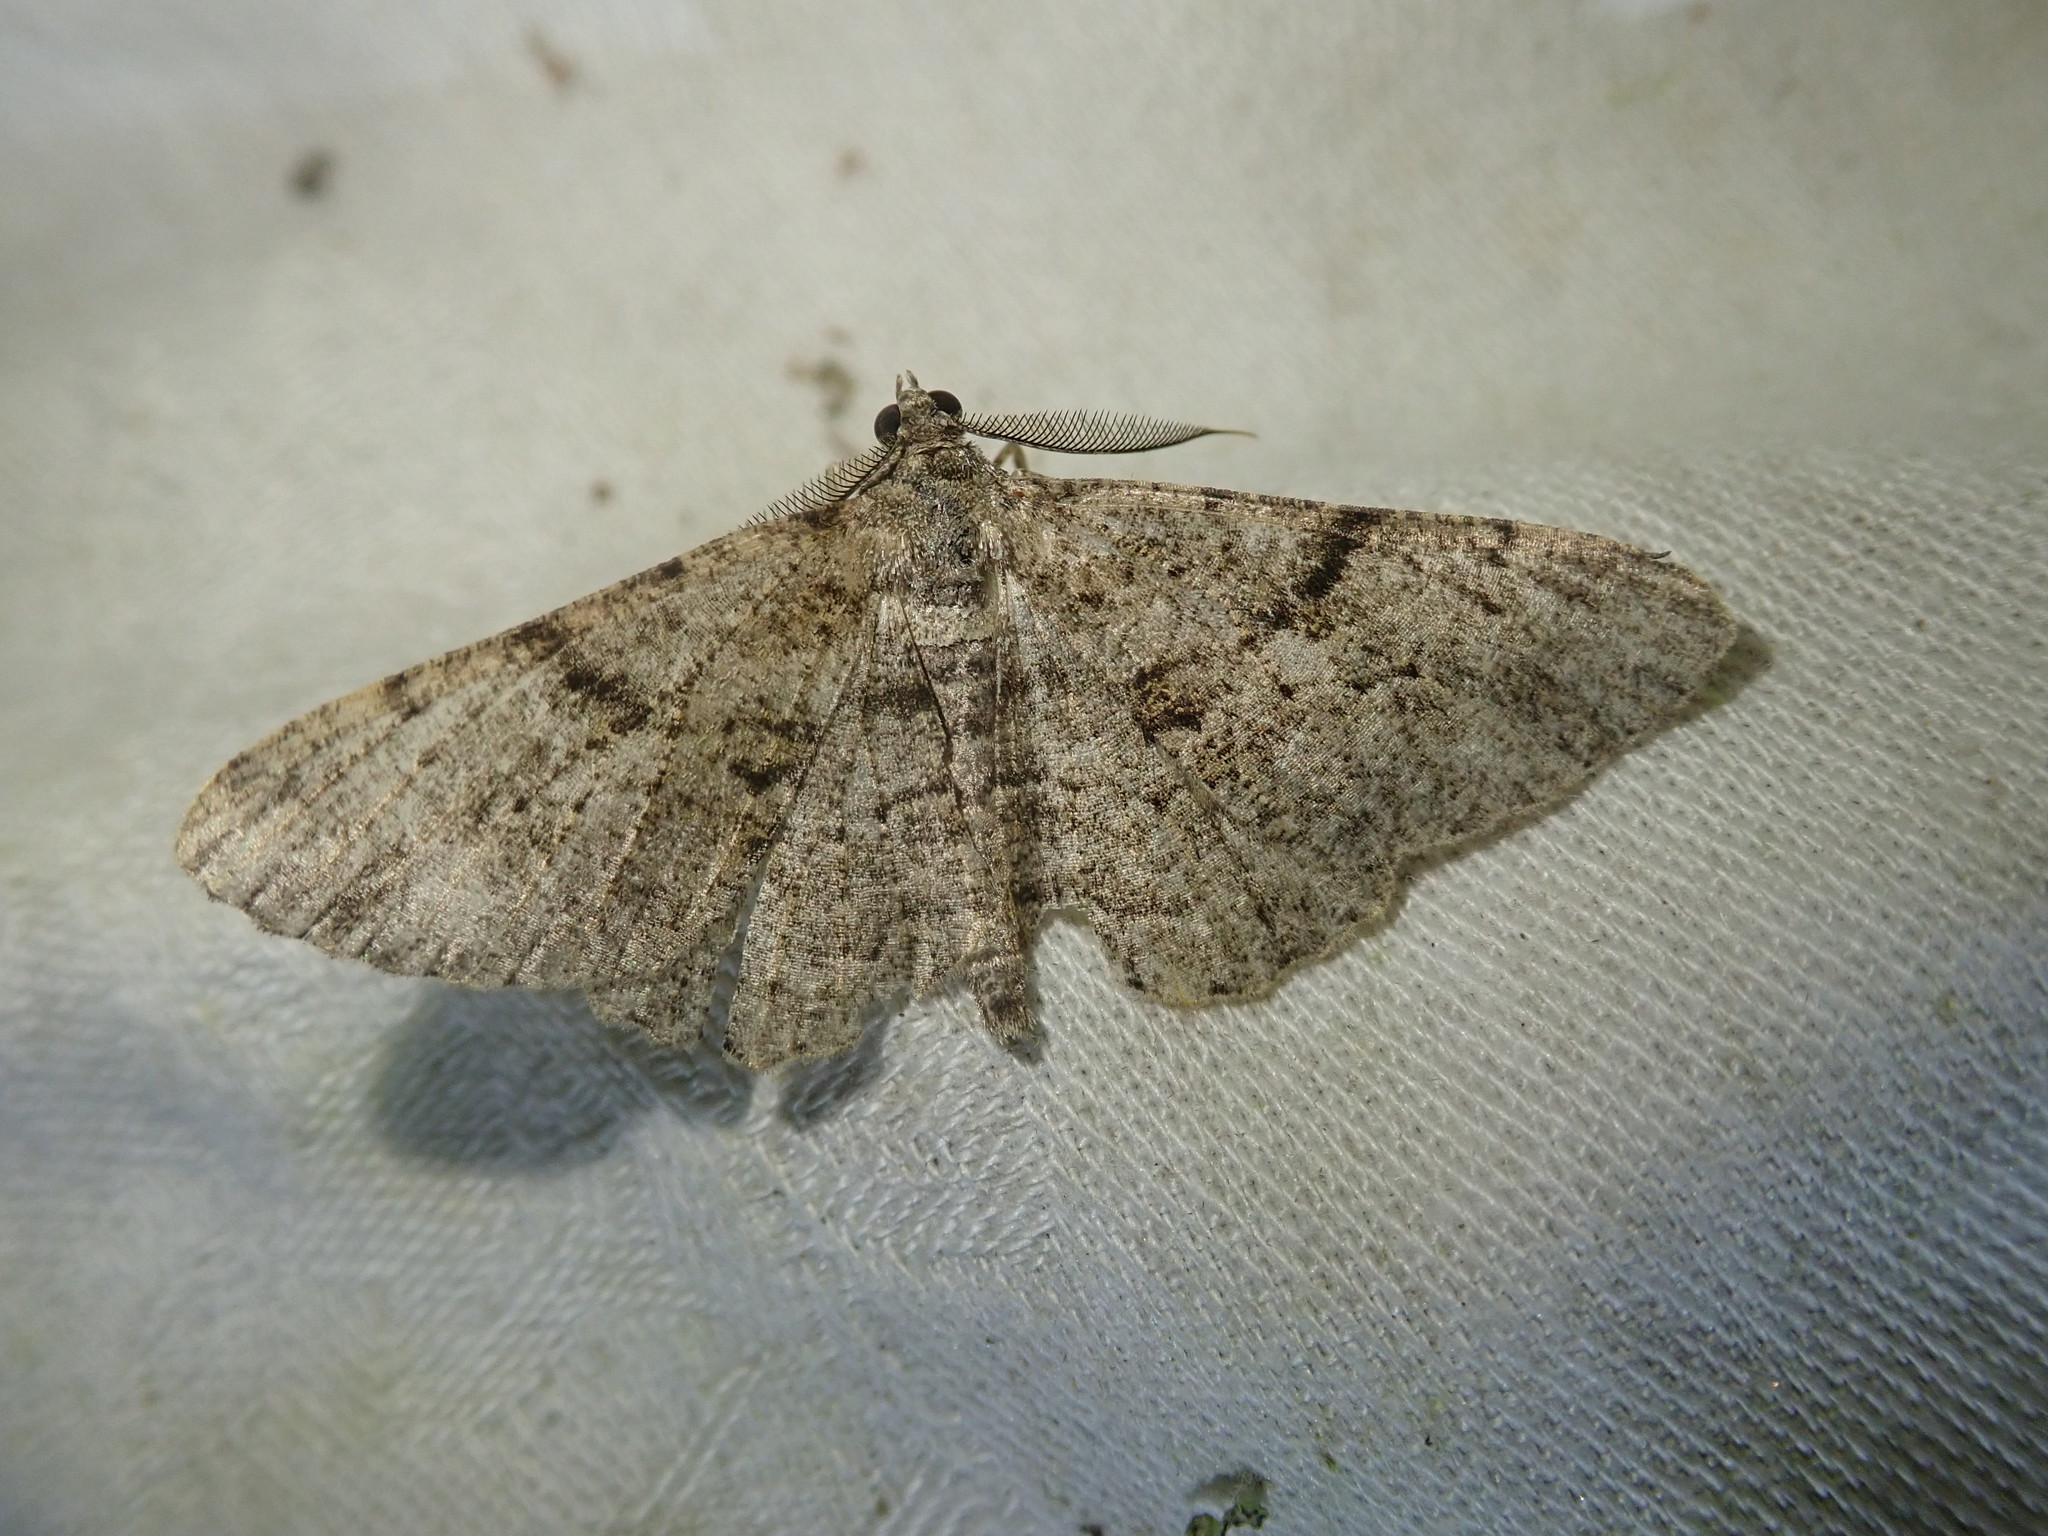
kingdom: Animalia
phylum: Arthropoda
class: Insecta
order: Lepidoptera
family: Geometridae
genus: Peribatodes
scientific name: Peribatodes rhomboidaria
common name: Willow beauty
